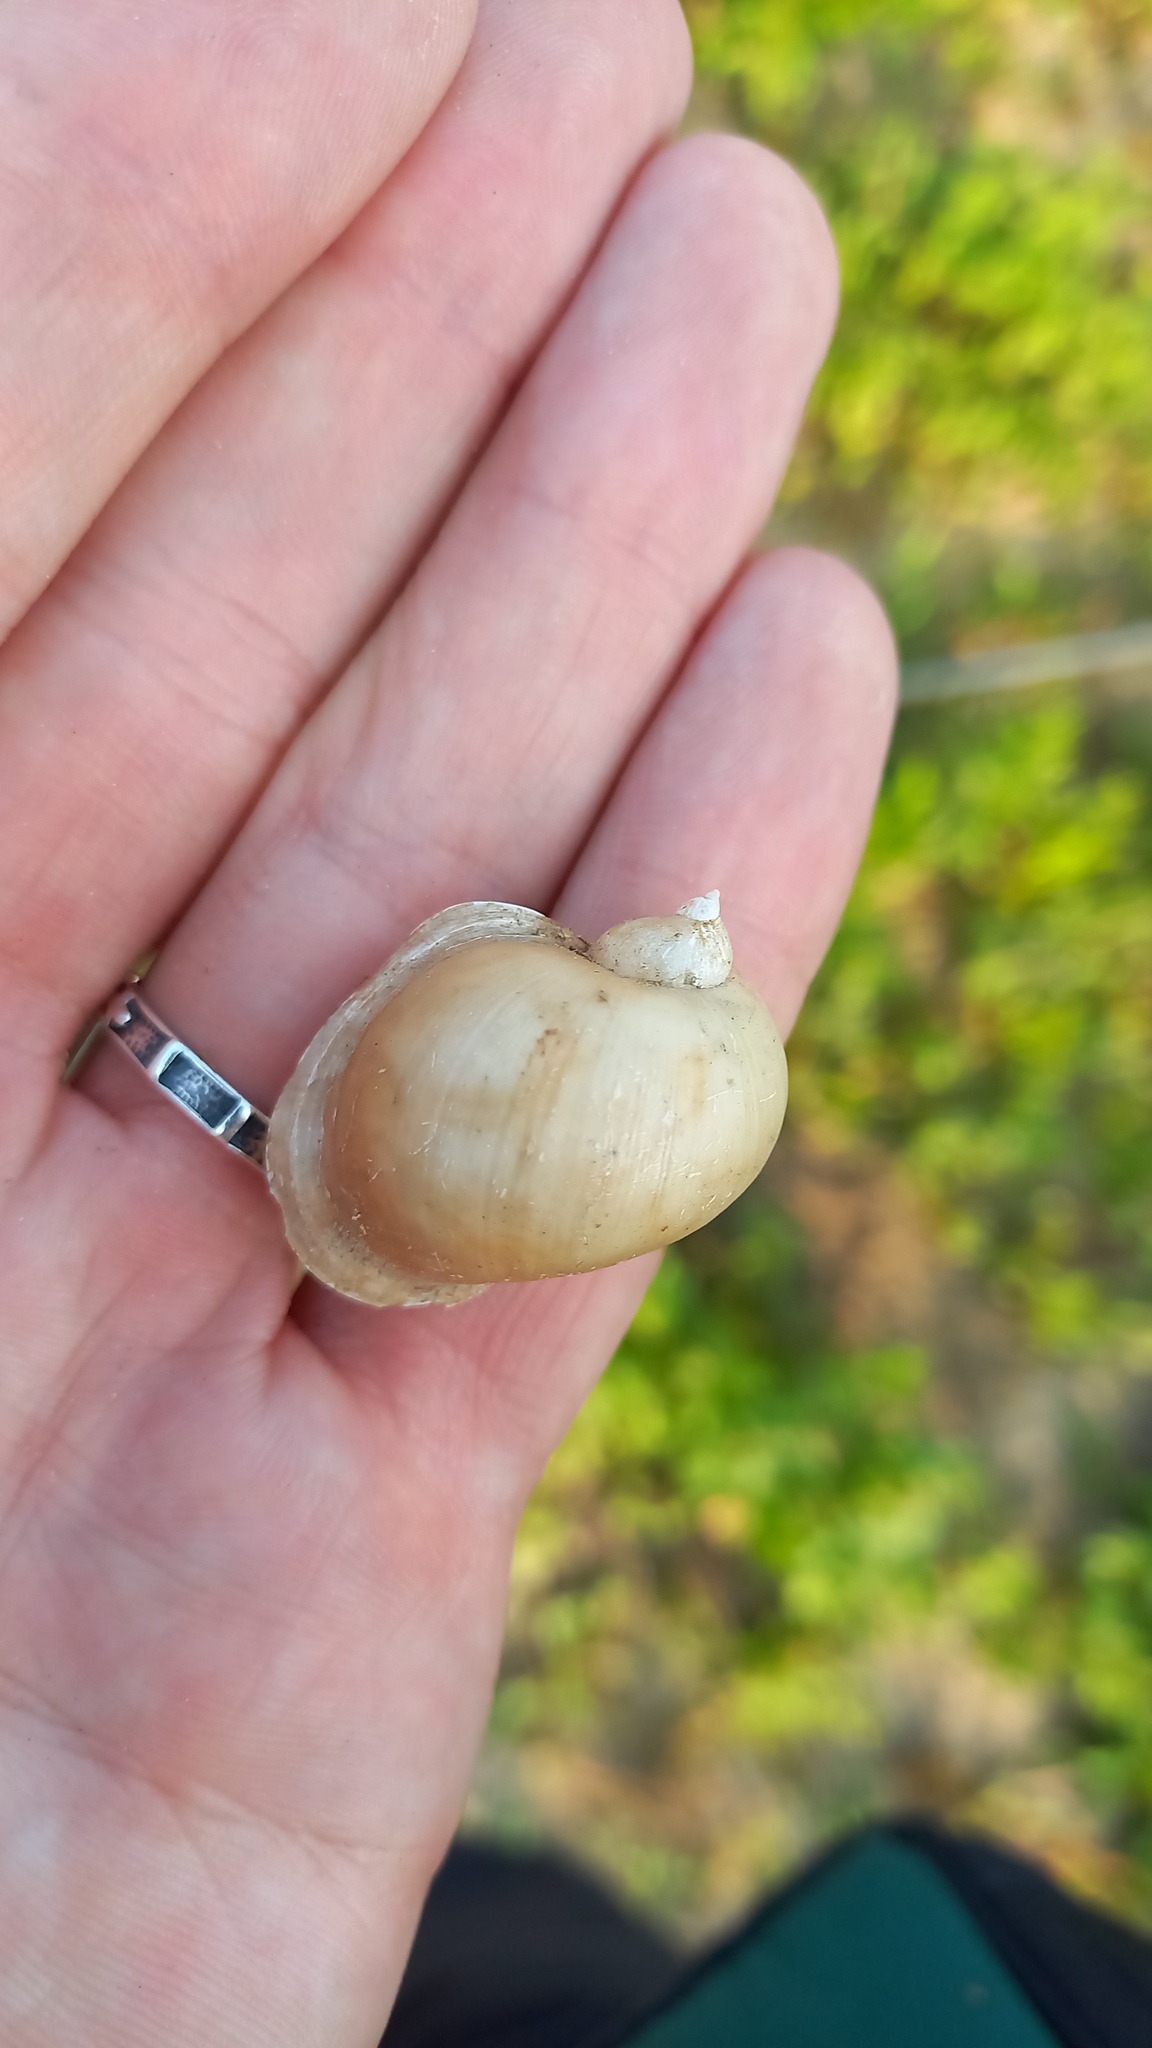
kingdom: Animalia
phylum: Mollusca
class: Gastropoda
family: Lymnaeidae
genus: Radix
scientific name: Radix auricularia
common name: Ear pond snail
